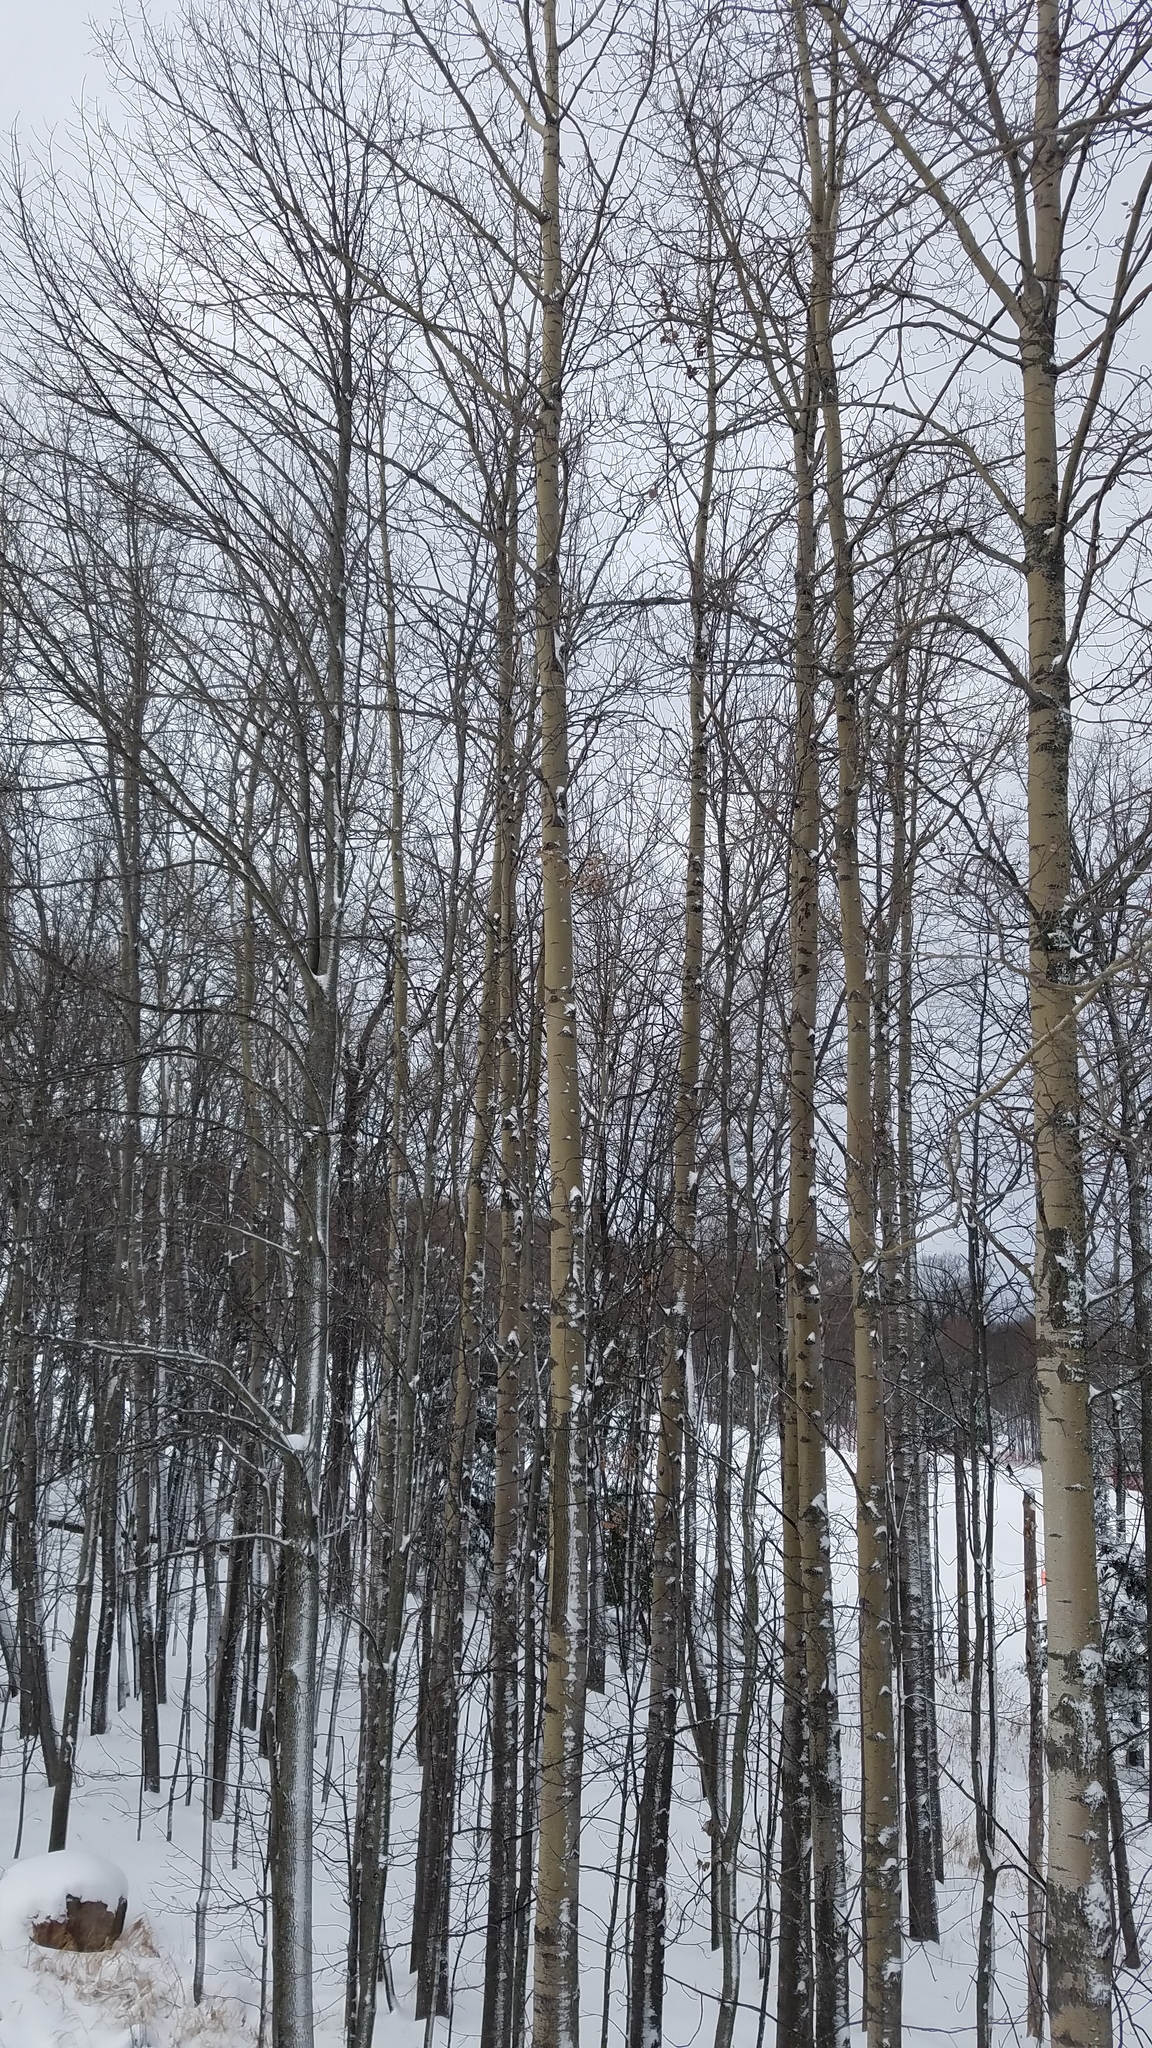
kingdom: Plantae
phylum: Tracheophyta
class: Magnoliopsida
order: Malpighiales
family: Salicaceae
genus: Populus
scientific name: Populus tremuloides
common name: Quaking aspen
